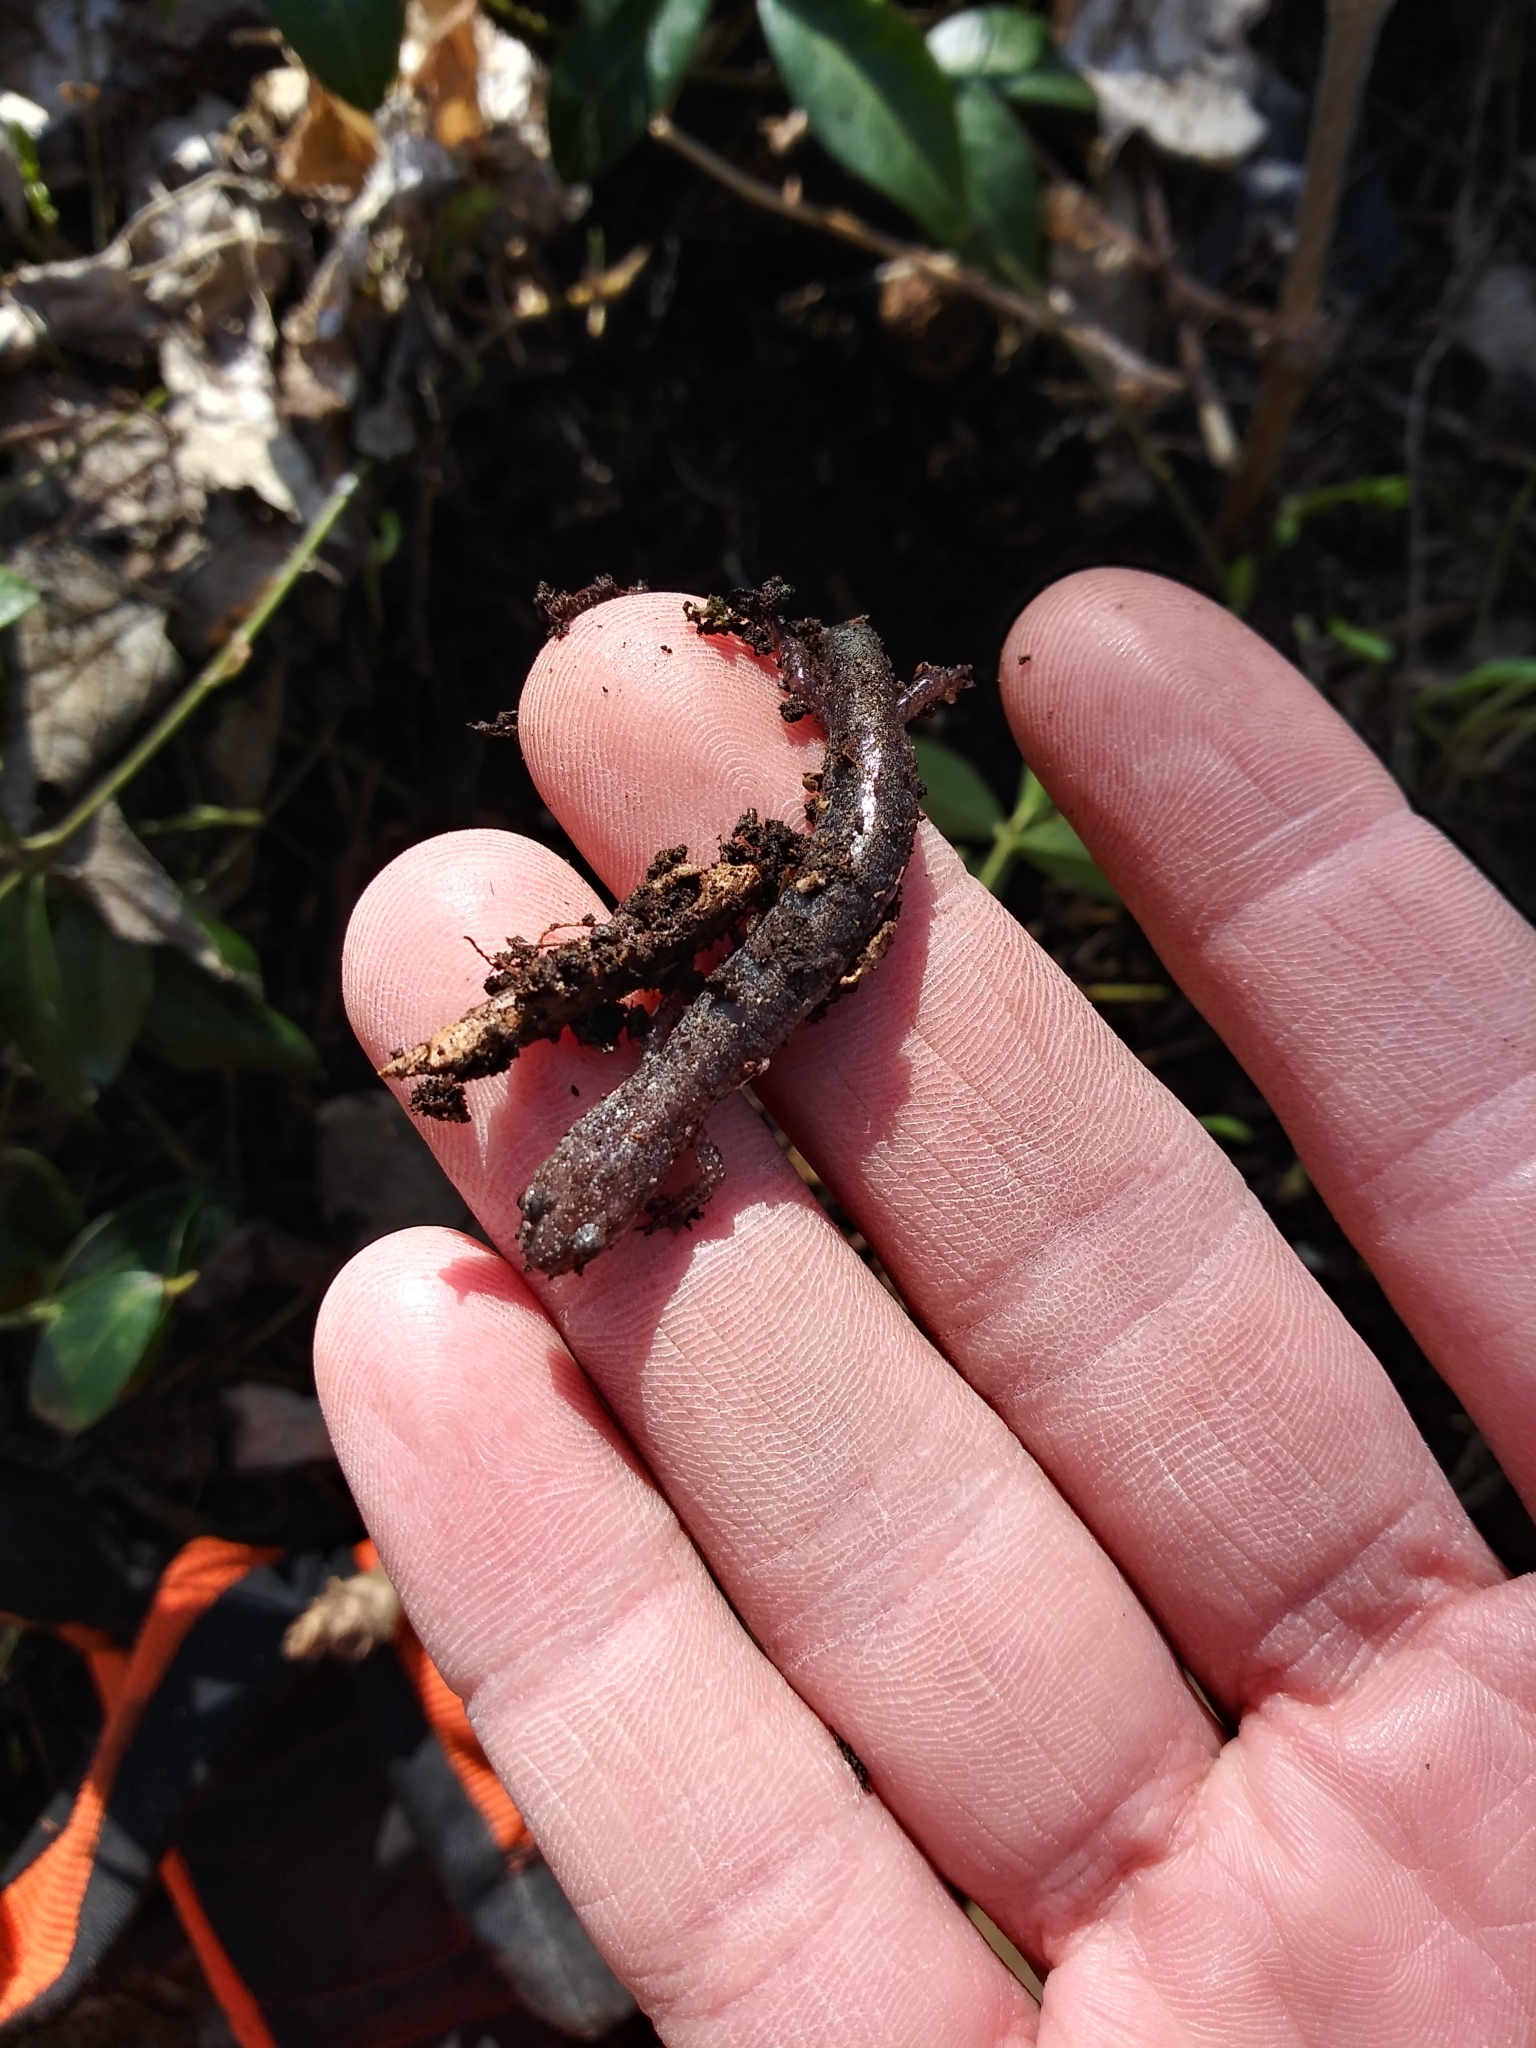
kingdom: Animalia
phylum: Chordata
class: Amphibia
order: Caudata
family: Plethodontidae
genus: Plethodon
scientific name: Plethodon cinereus
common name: Redback salamander
